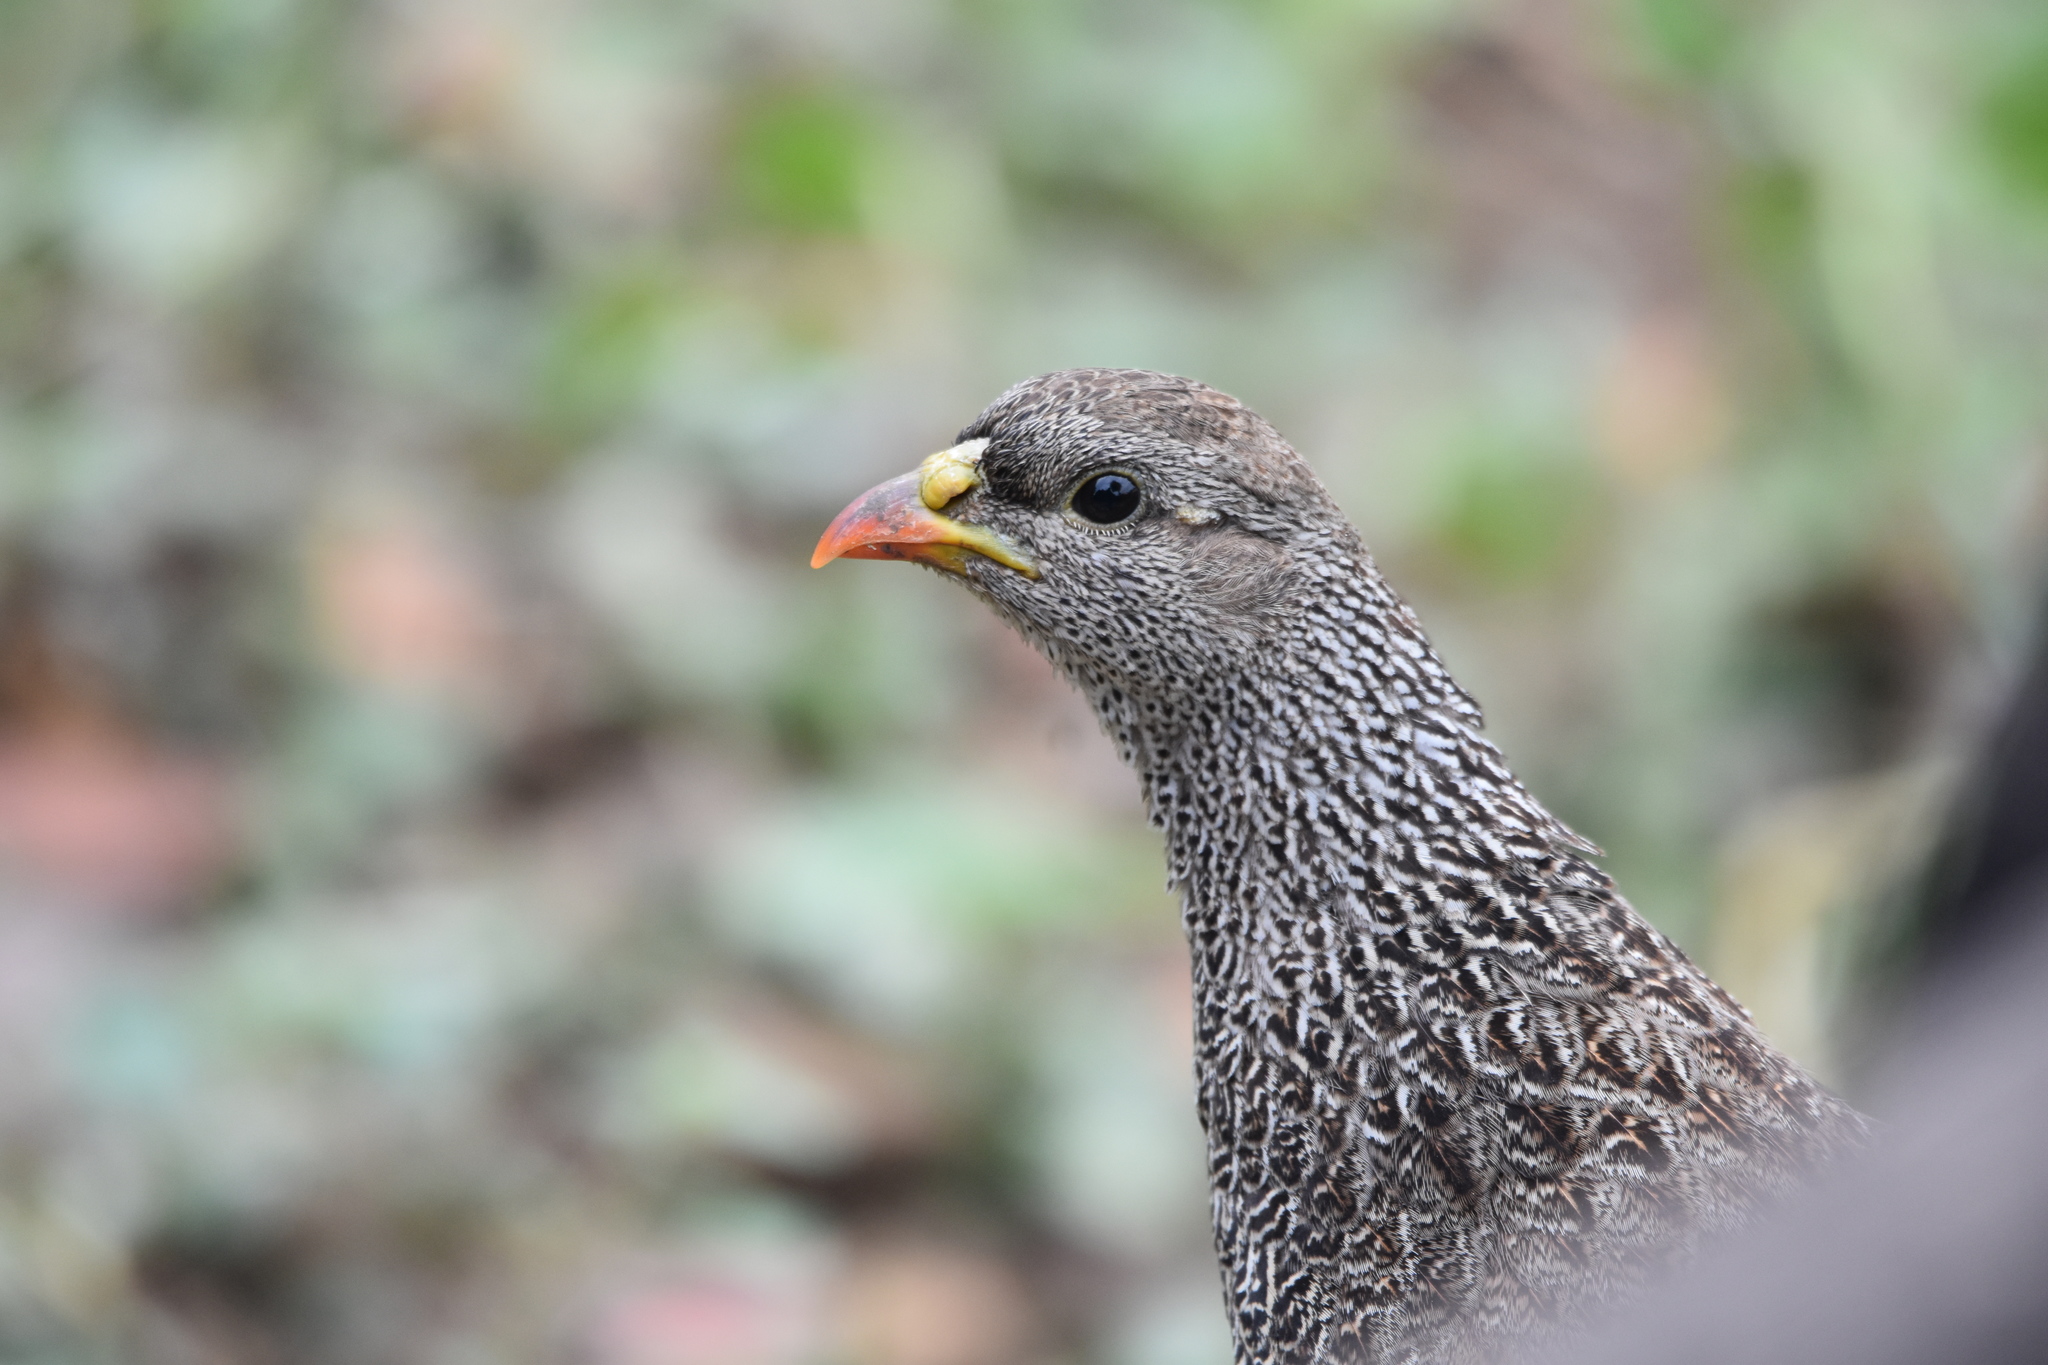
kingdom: Animalia
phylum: Chordata
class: Aves
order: Galliformes
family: Phasianidae
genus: Pternistis
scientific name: Pternistis natalensis
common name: Natal spurfowl
